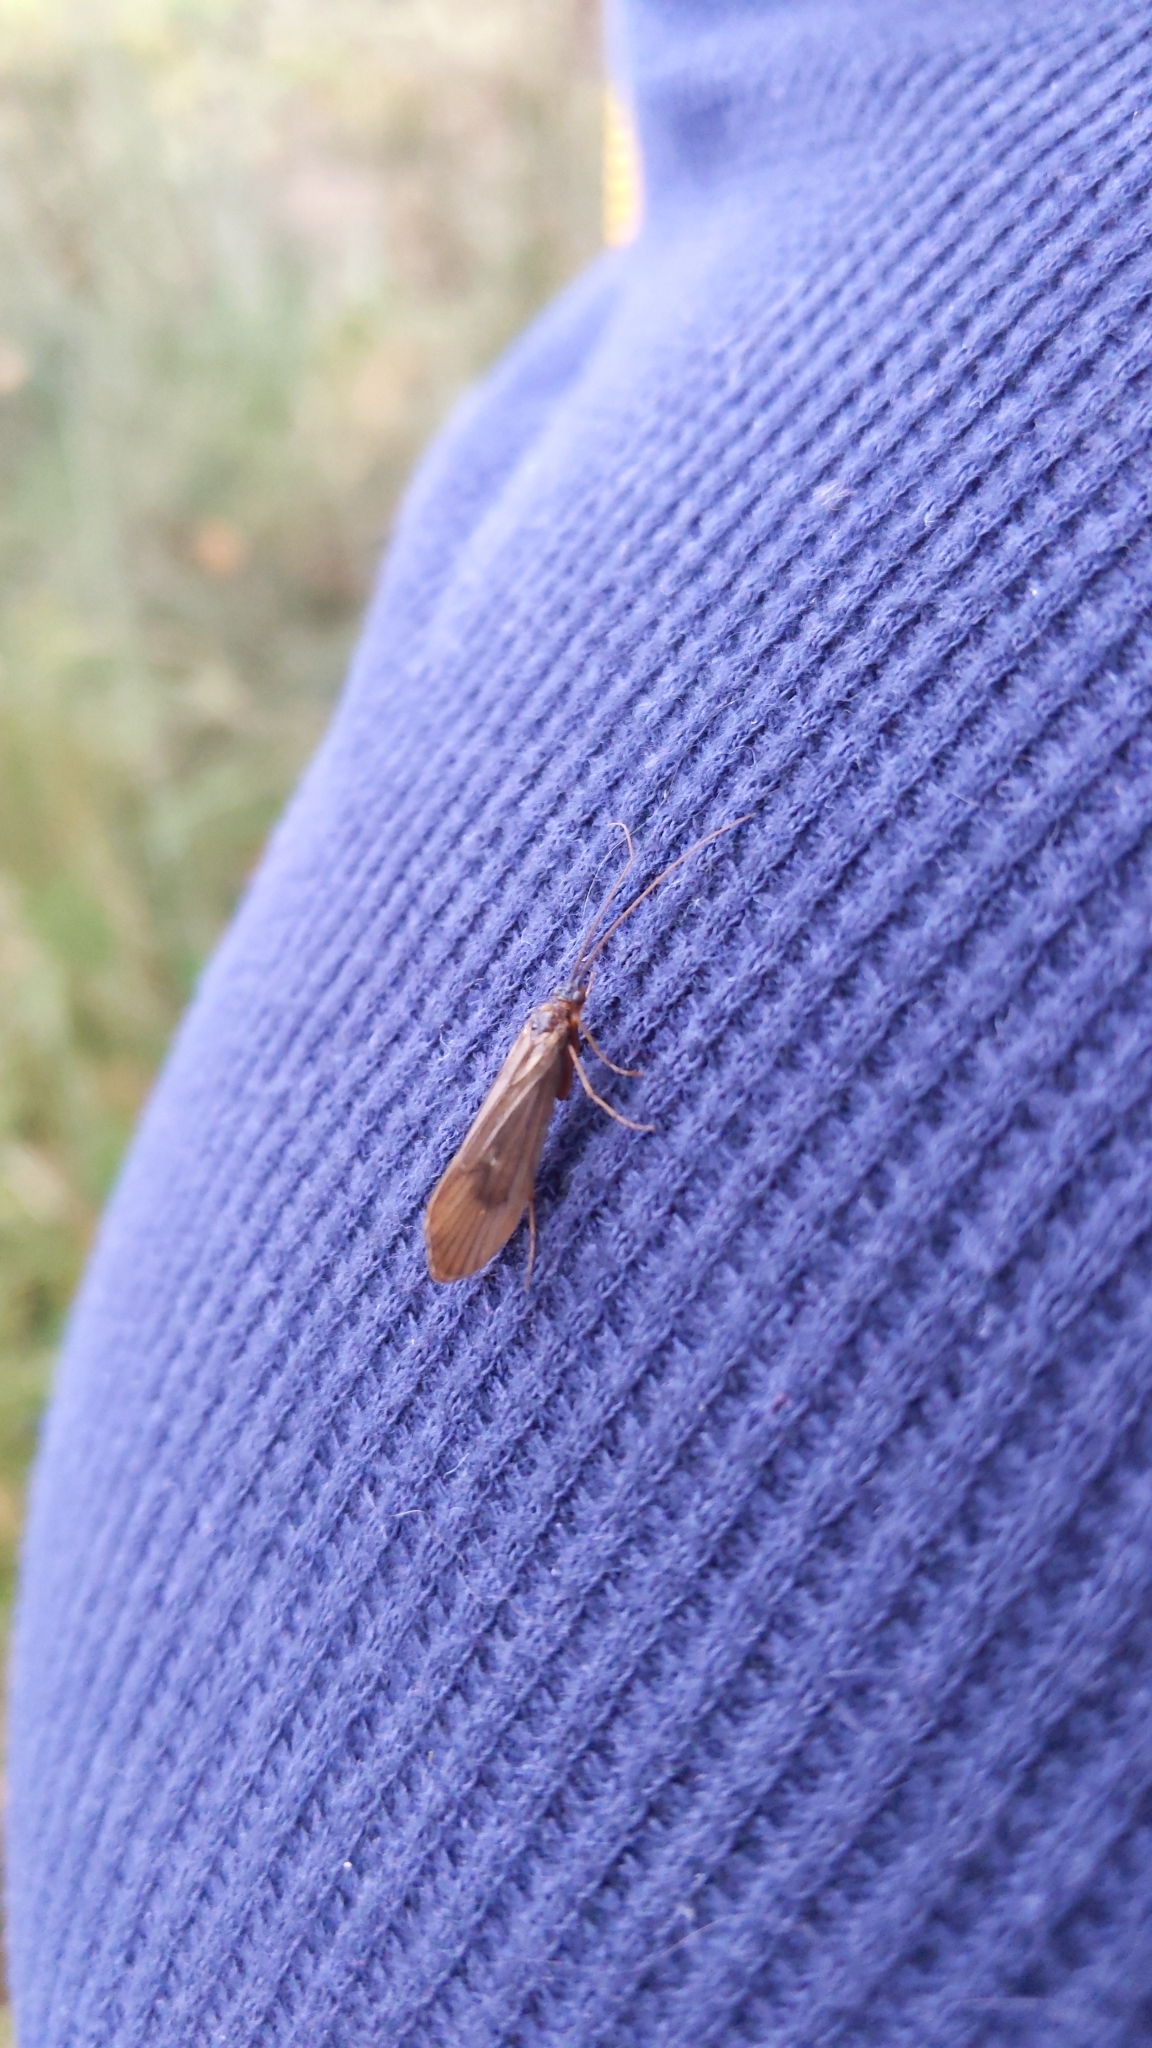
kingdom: Animalia
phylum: Arthropoda
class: Insecta
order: Trichoptera
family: Limnephilidae
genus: Anabolia
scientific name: Anabolia nervosa
